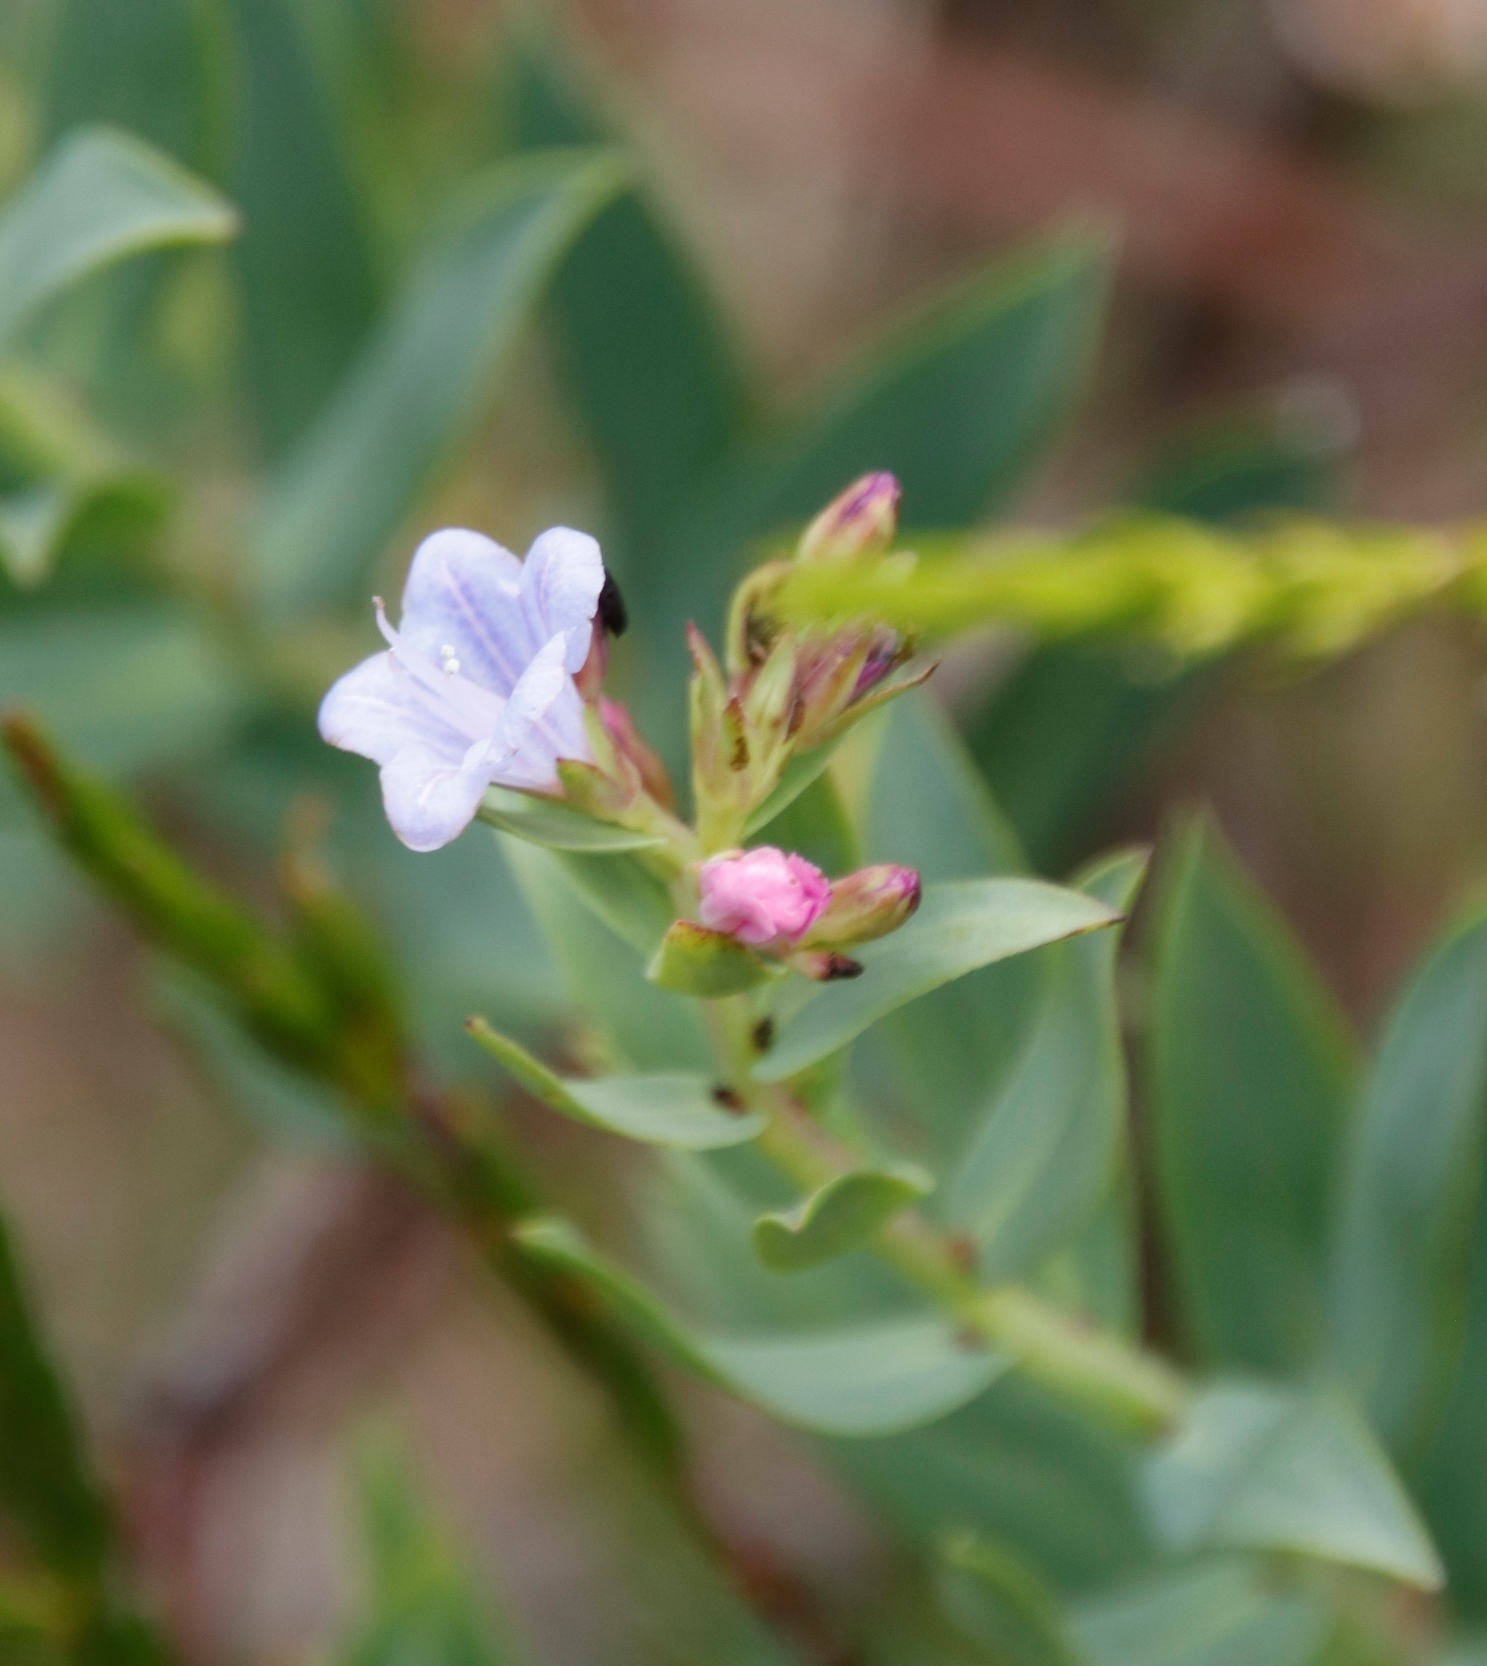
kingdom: Plantae
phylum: Tracheophyta
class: Magnoliopsida
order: Boraginales
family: Boraginaceae
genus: Lobostemon
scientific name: Lobostemon glaucophyllus
